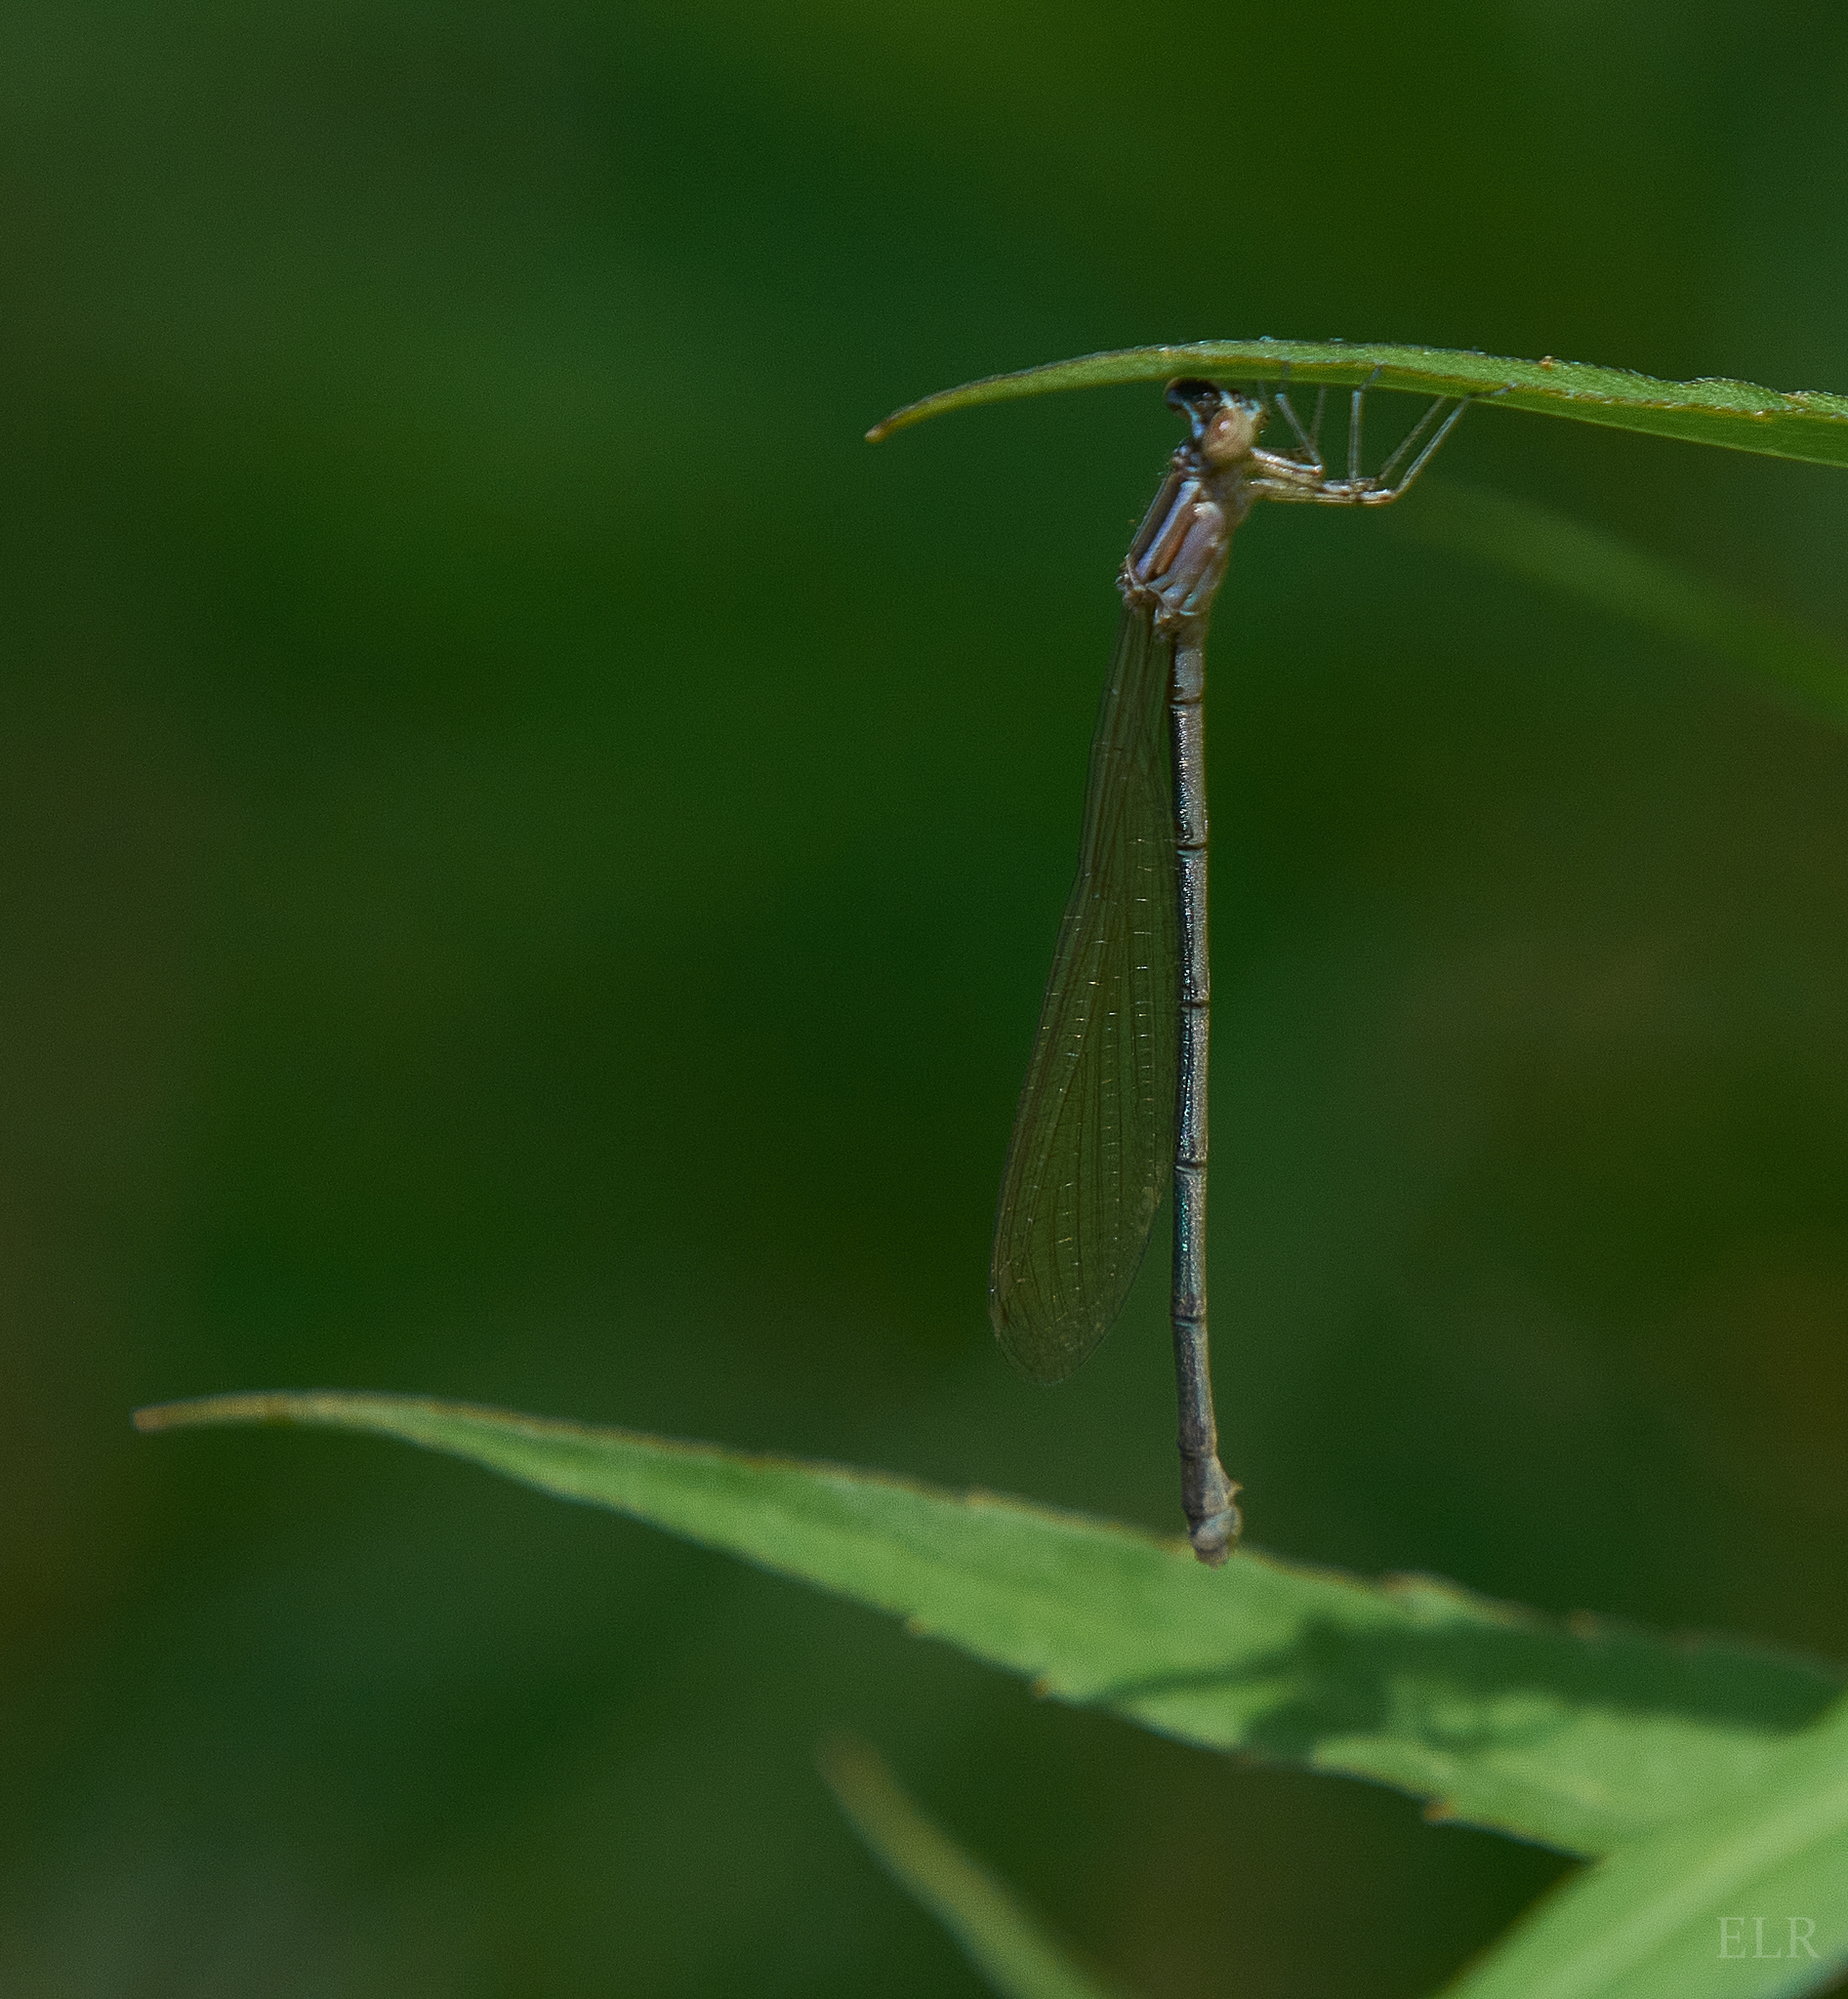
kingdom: Animalia
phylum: Arthropoda
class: Insecta
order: Odonata
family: Coenagrionidae
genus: Enallagma
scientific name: Enallagma exsulans
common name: Stream bluet
